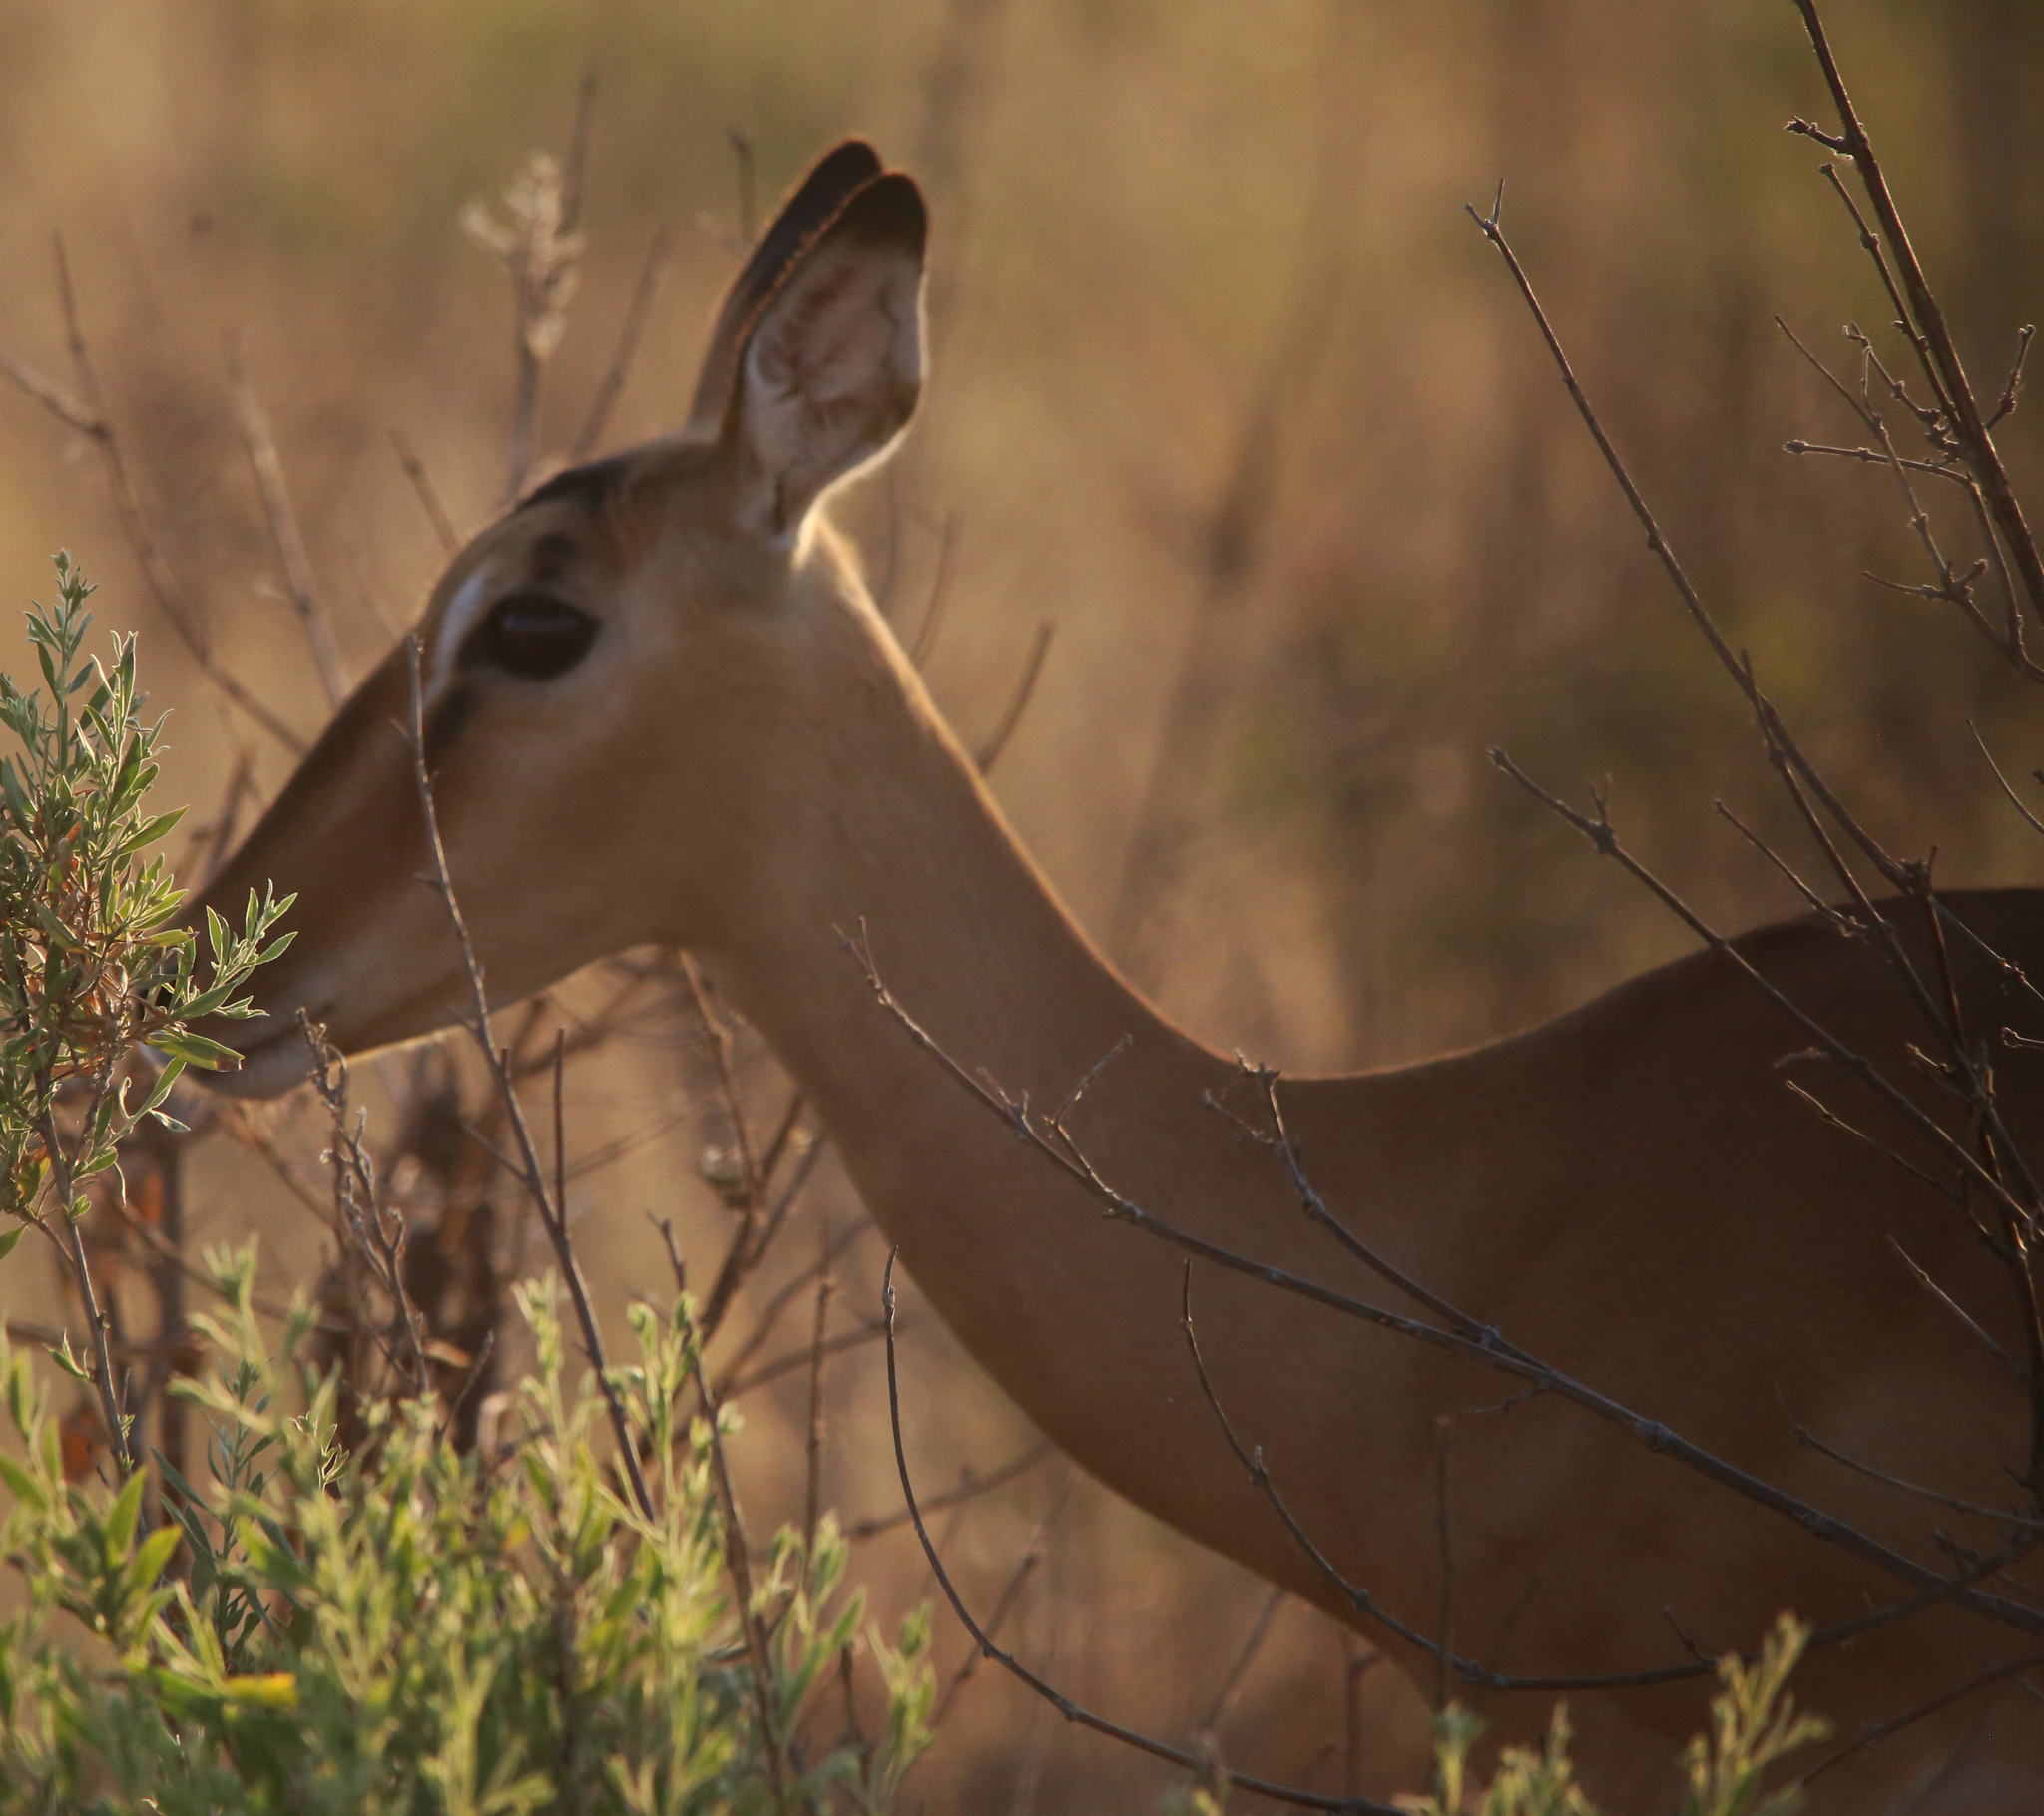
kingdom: Animalia
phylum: Chordata
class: Mammalia
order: Artiodactyla
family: Bovidae
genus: Aepyceros
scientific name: Aepyceros melampus
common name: Impala
